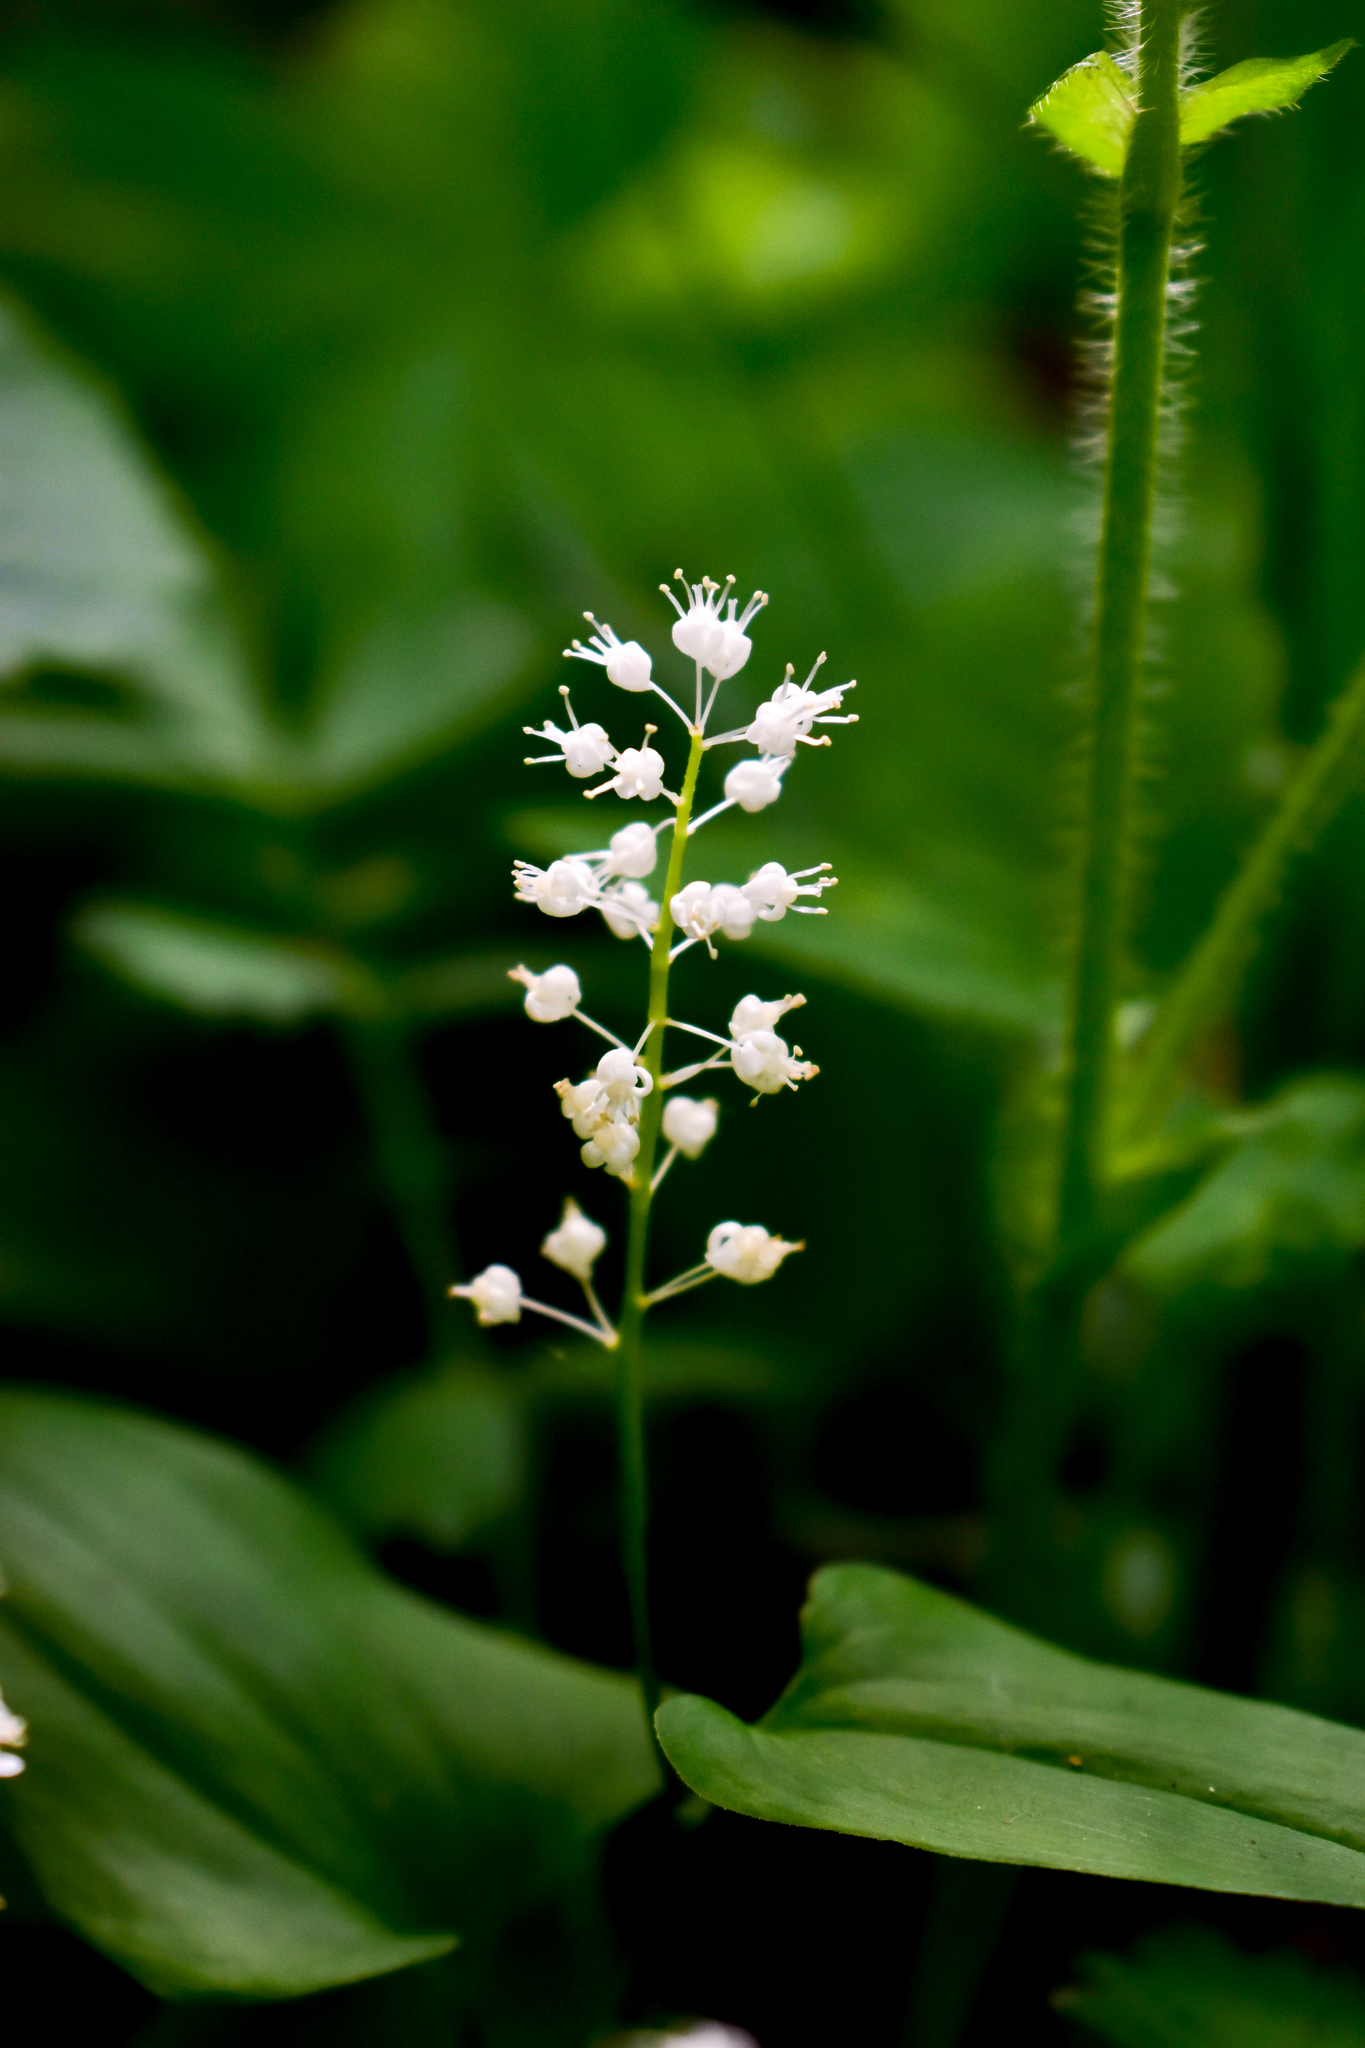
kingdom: Plantae
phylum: Tracheophyta
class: Liliopsida
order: Asparagales
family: Asparagaceae
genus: Maianthemum
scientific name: Maianthemum bifolium
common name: May lily
